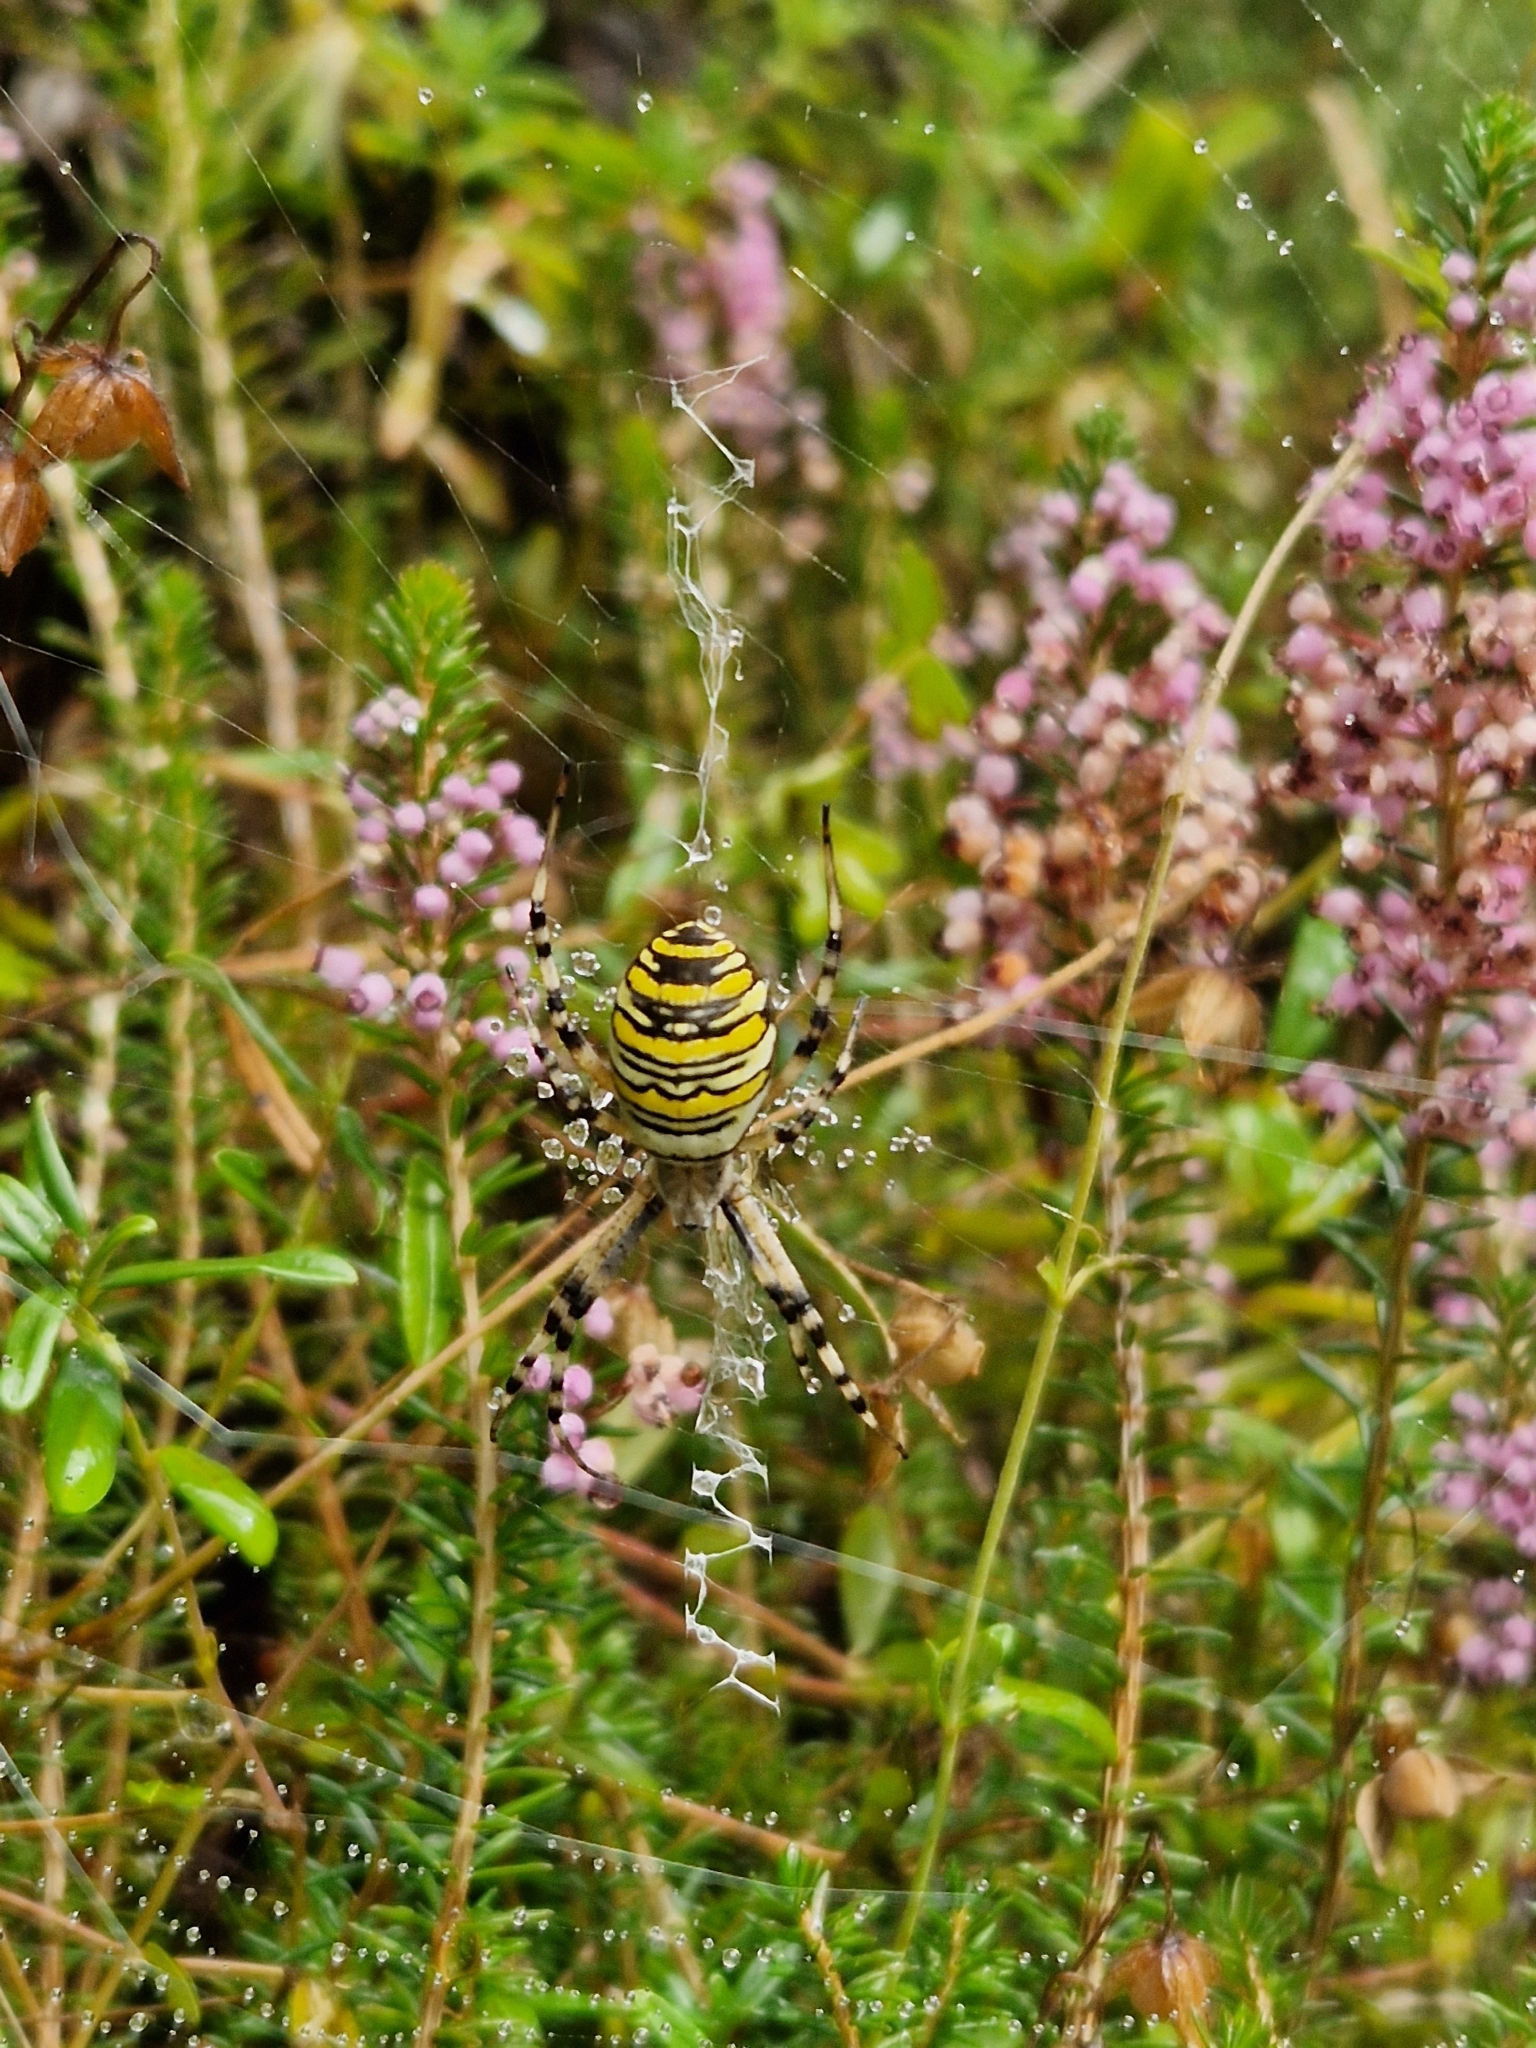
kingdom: Animalia
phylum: Arthropoda
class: Arachnida
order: Araneae
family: Araneidae
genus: Argiope
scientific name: Argiope bruennichi
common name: Wasp spider
